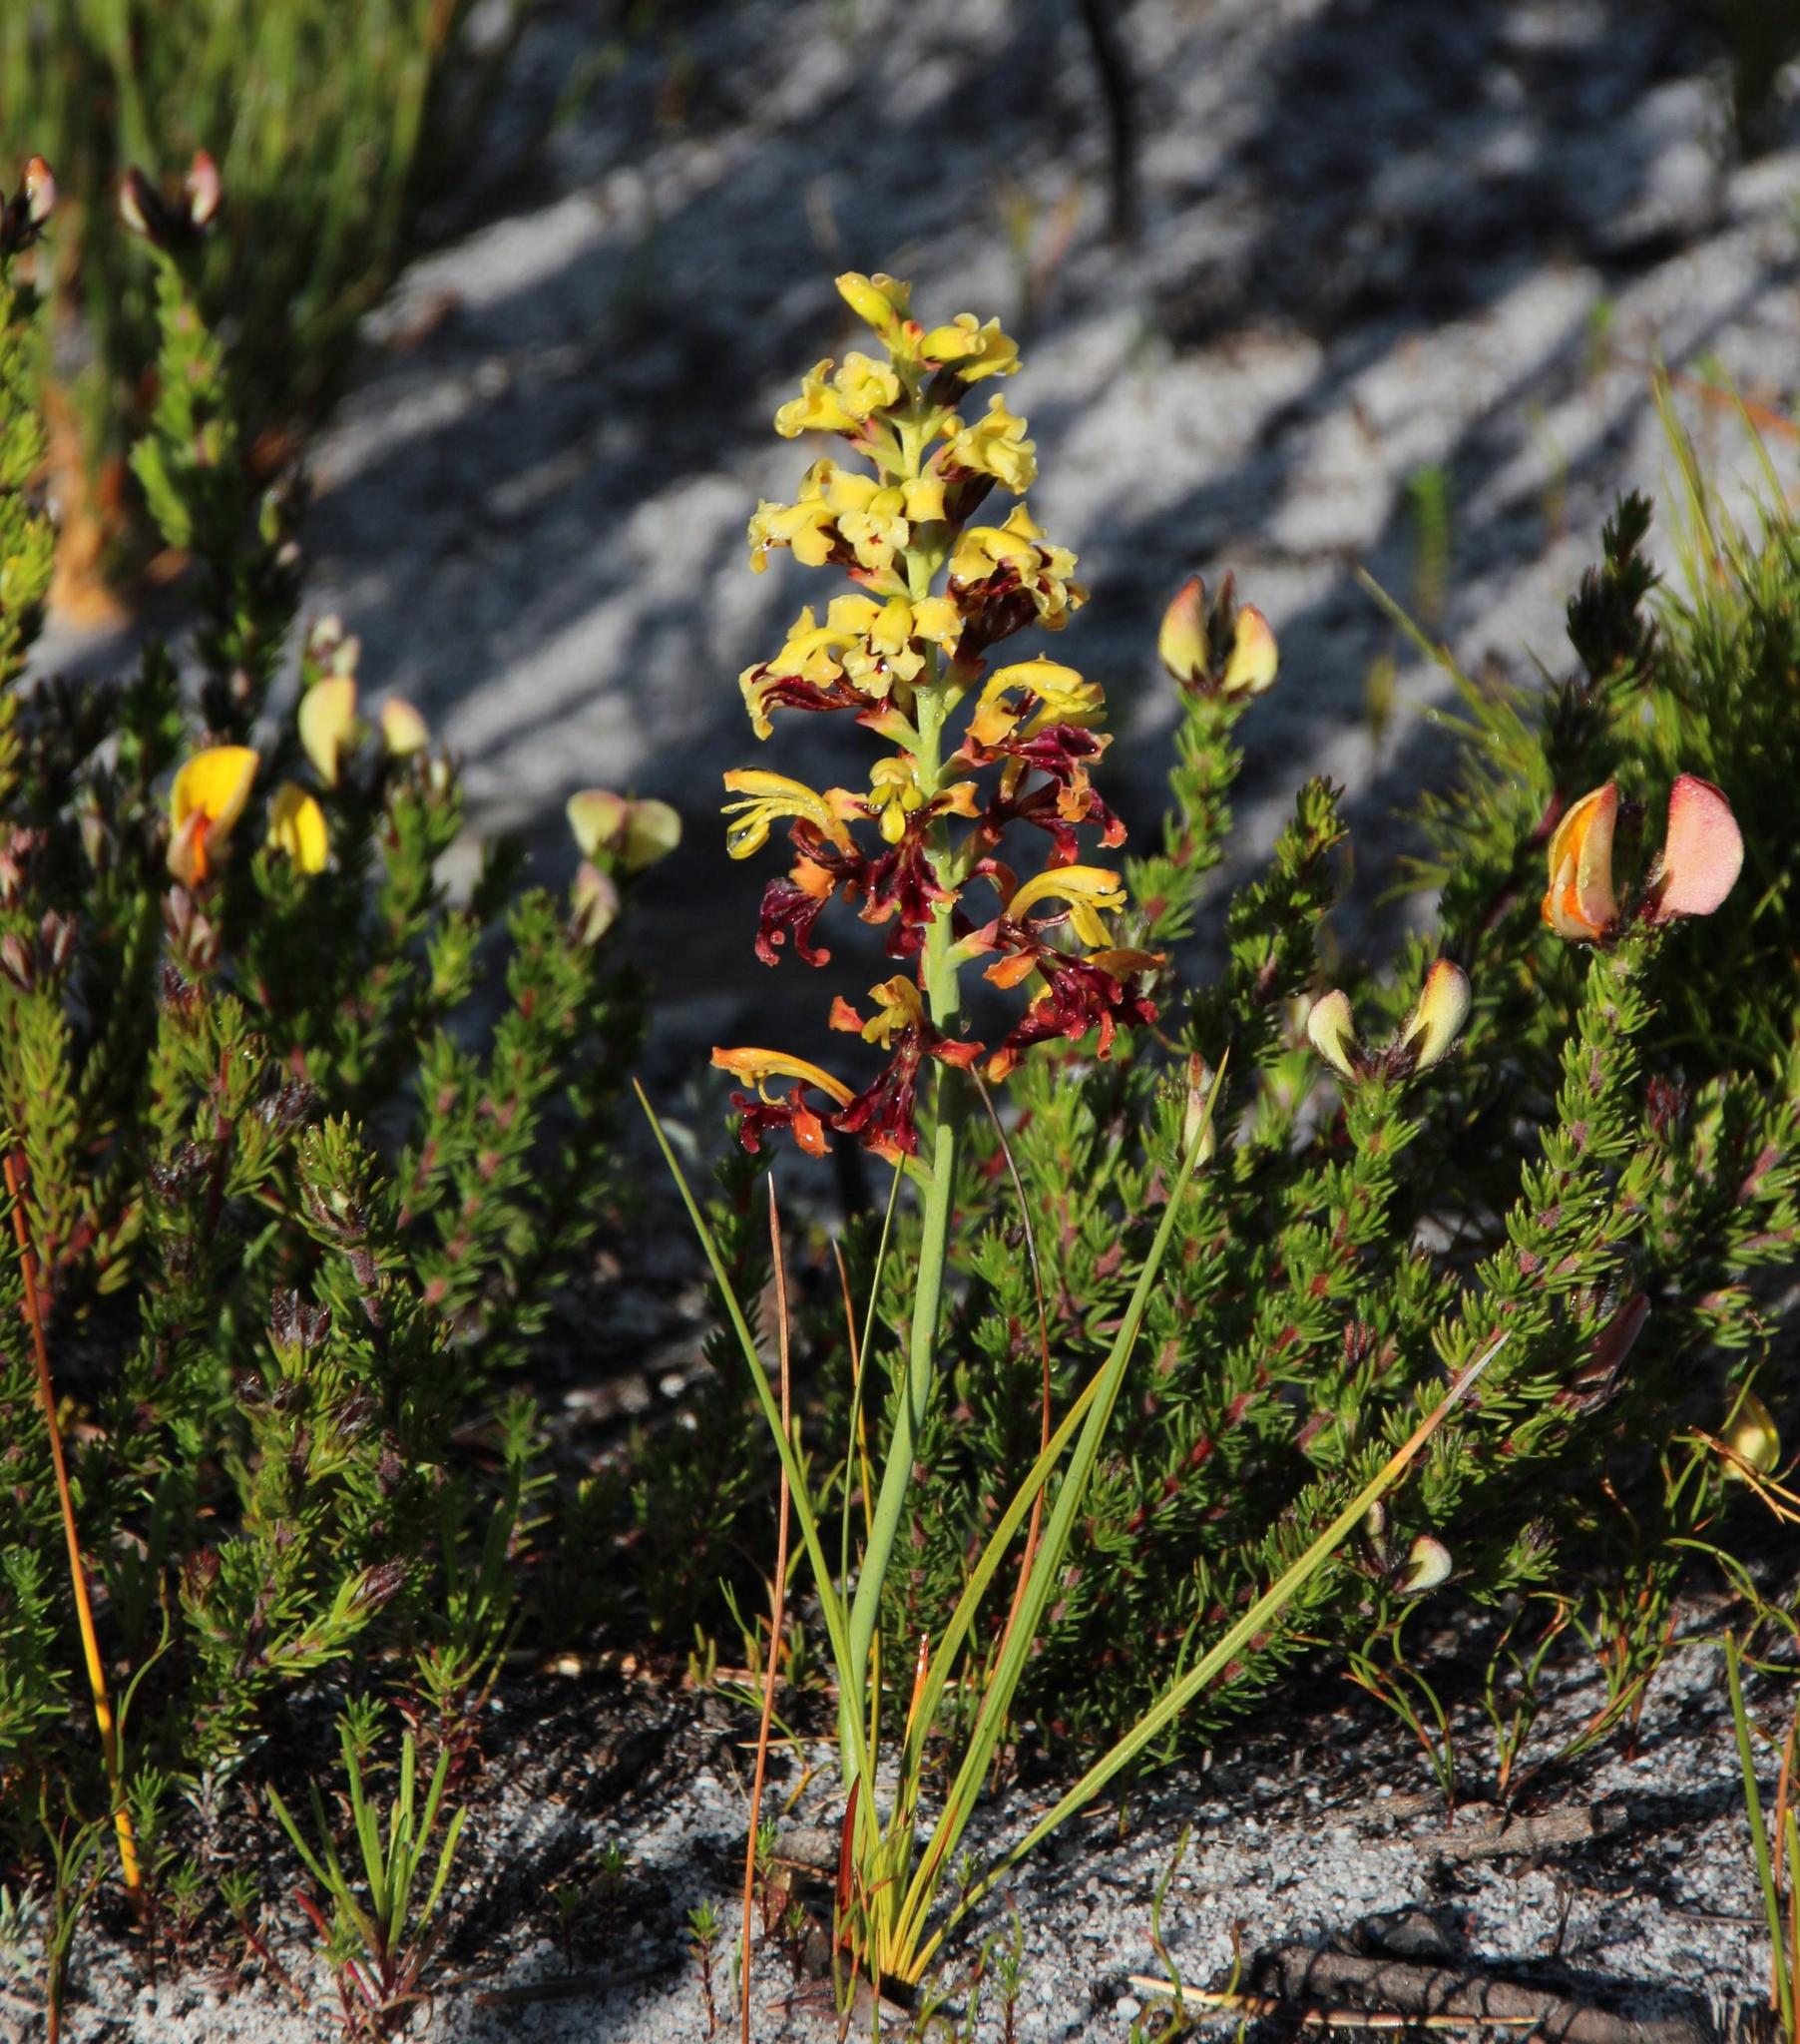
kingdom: Plantae
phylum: Tracheophyta
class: Liliopsida
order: Asparagales
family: Iridaceae
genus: Tritoniopsis
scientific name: Tritoniopsis parviflora
